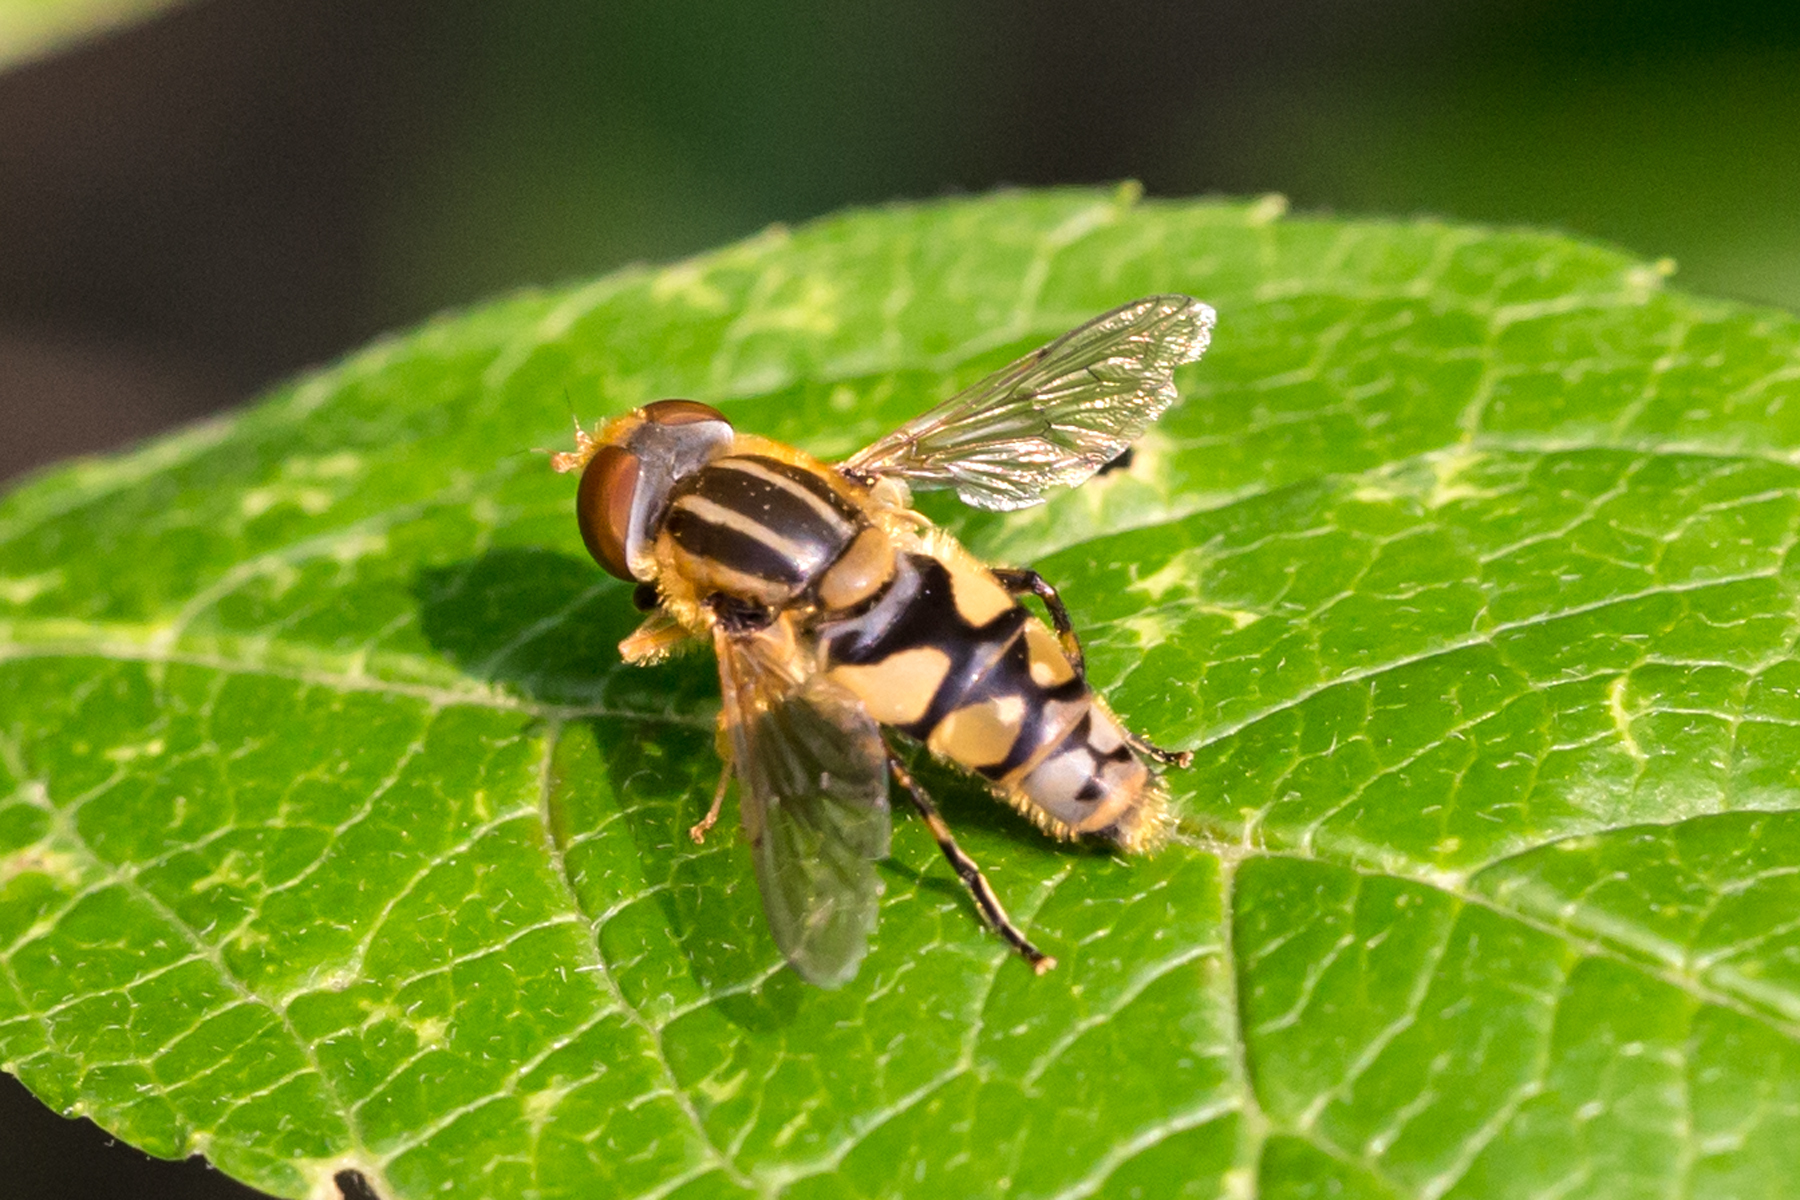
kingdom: Animalia
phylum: Arthropoda
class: Insecta
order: Diptera
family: Syrphidae
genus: Parhelophilus
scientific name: Parhelophilus integer
